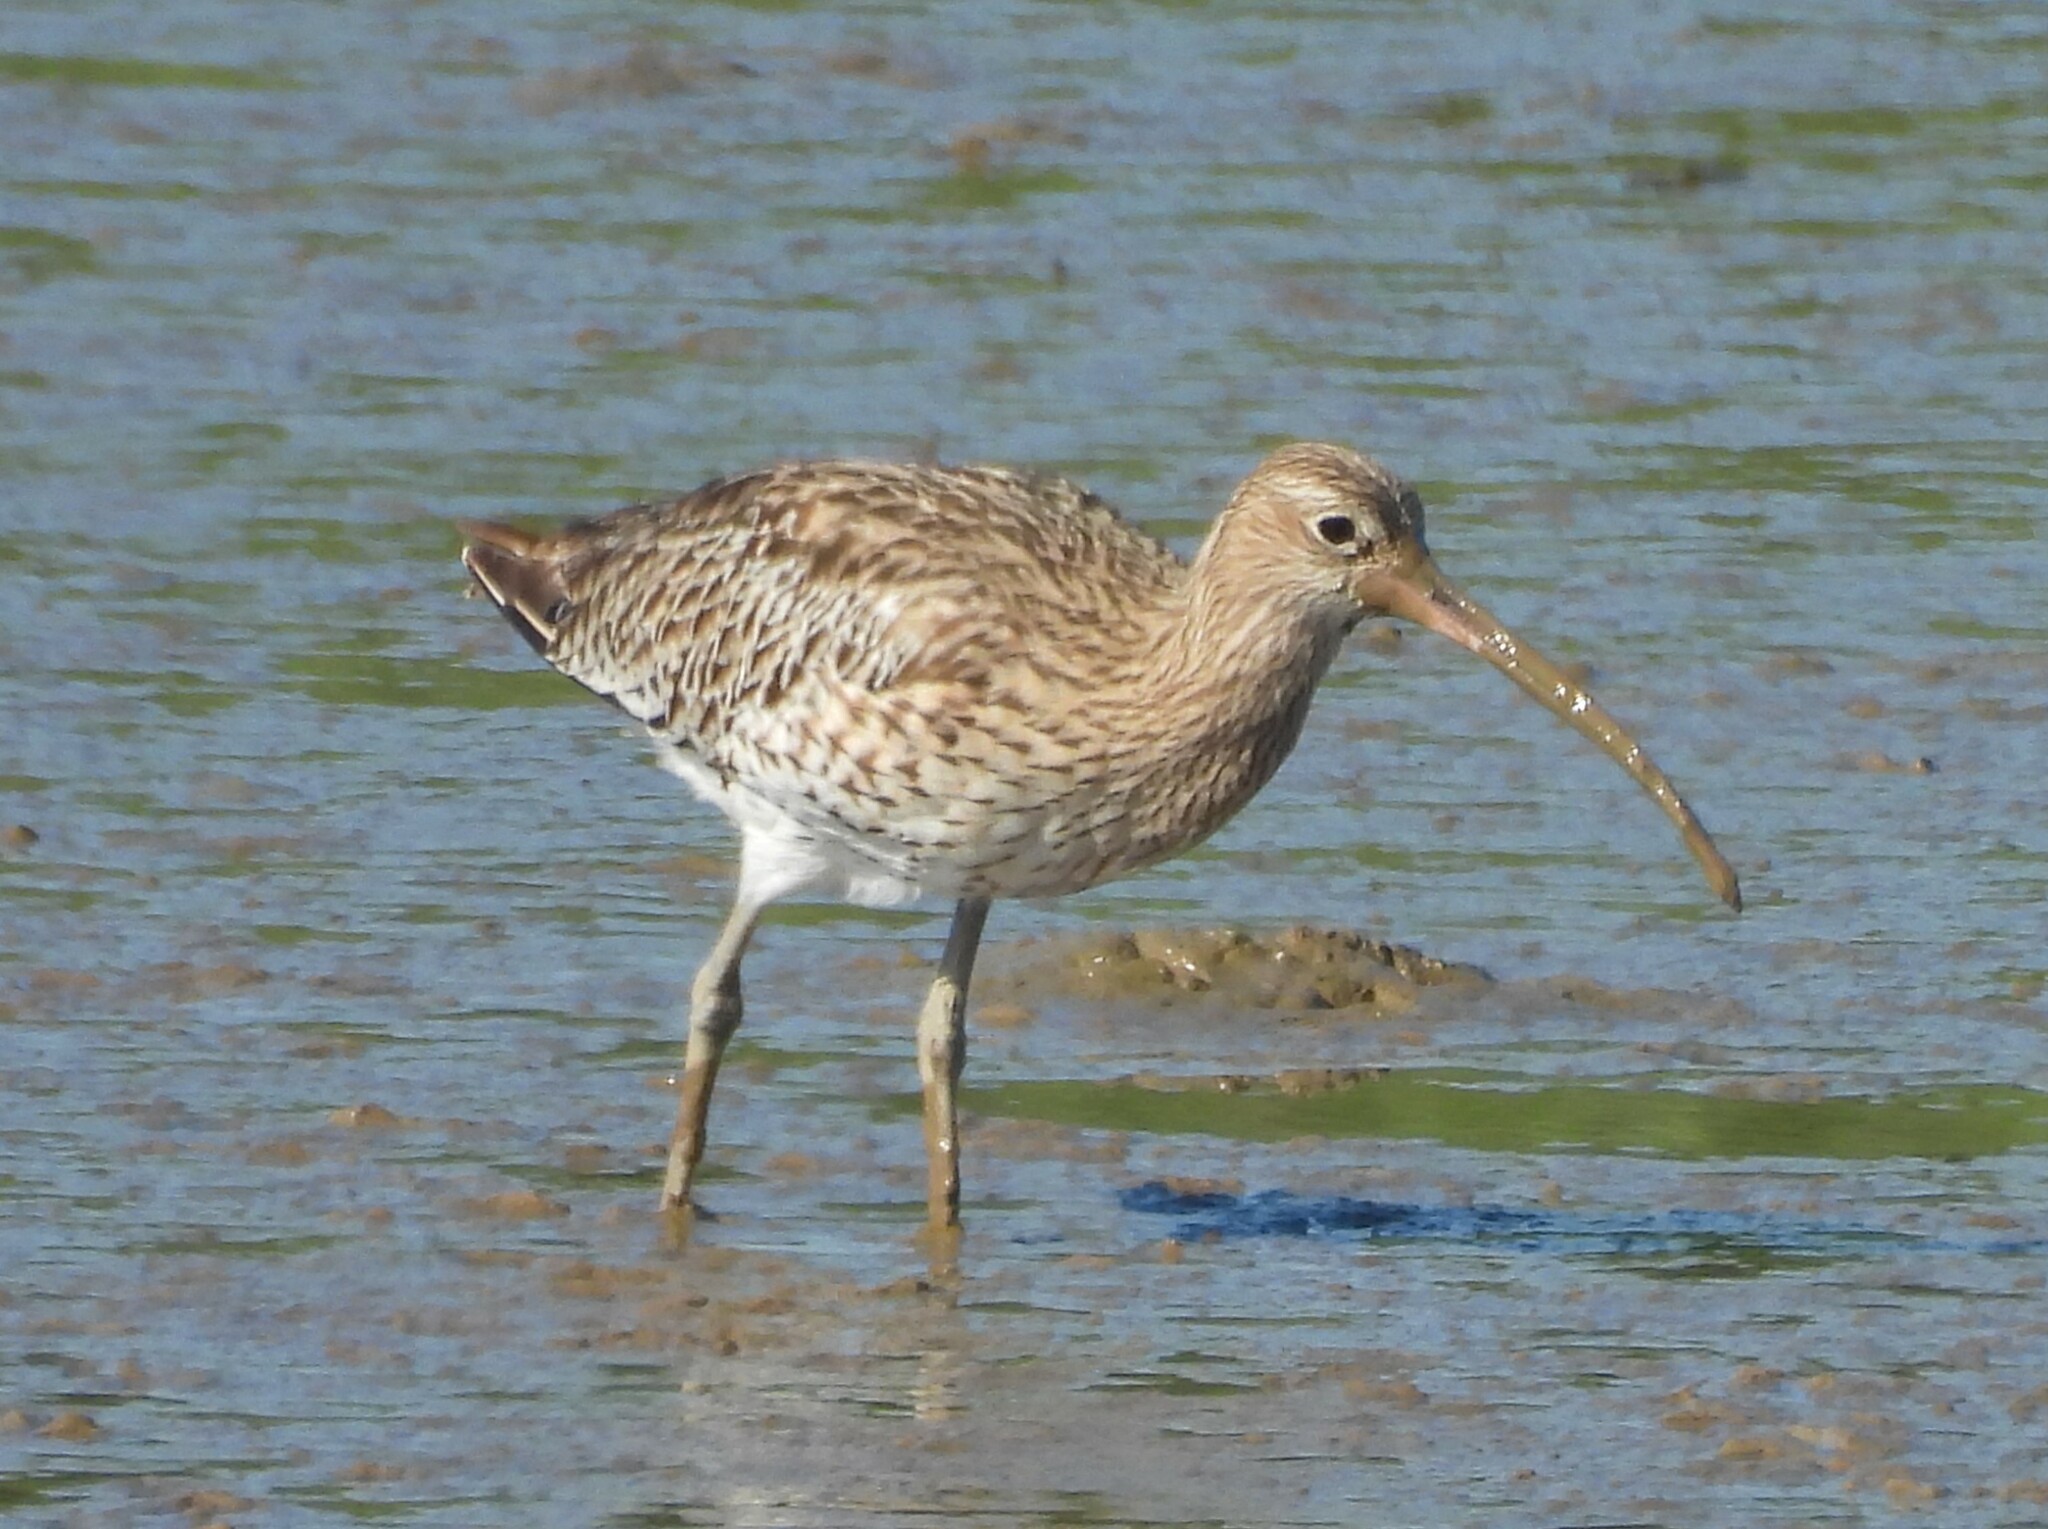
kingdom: Animalia
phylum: Chordata
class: Aves
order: Charadriiformes
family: Scolopacidae
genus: Numenius
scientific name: Numenius arquata
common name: Eurasian curlew
